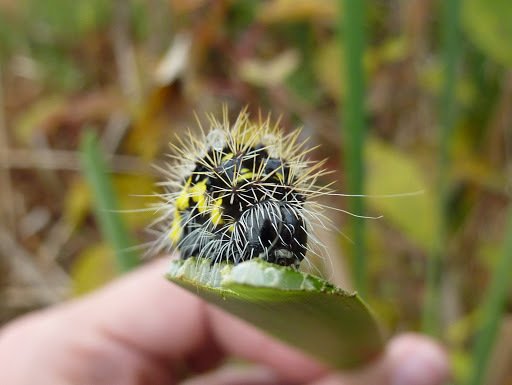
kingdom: Animalia
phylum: Arthropoda
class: Insecta
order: Lepidoptera
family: Noctuidae
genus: Acronicta
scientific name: Acronicta oblinita
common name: Smeared dagger
